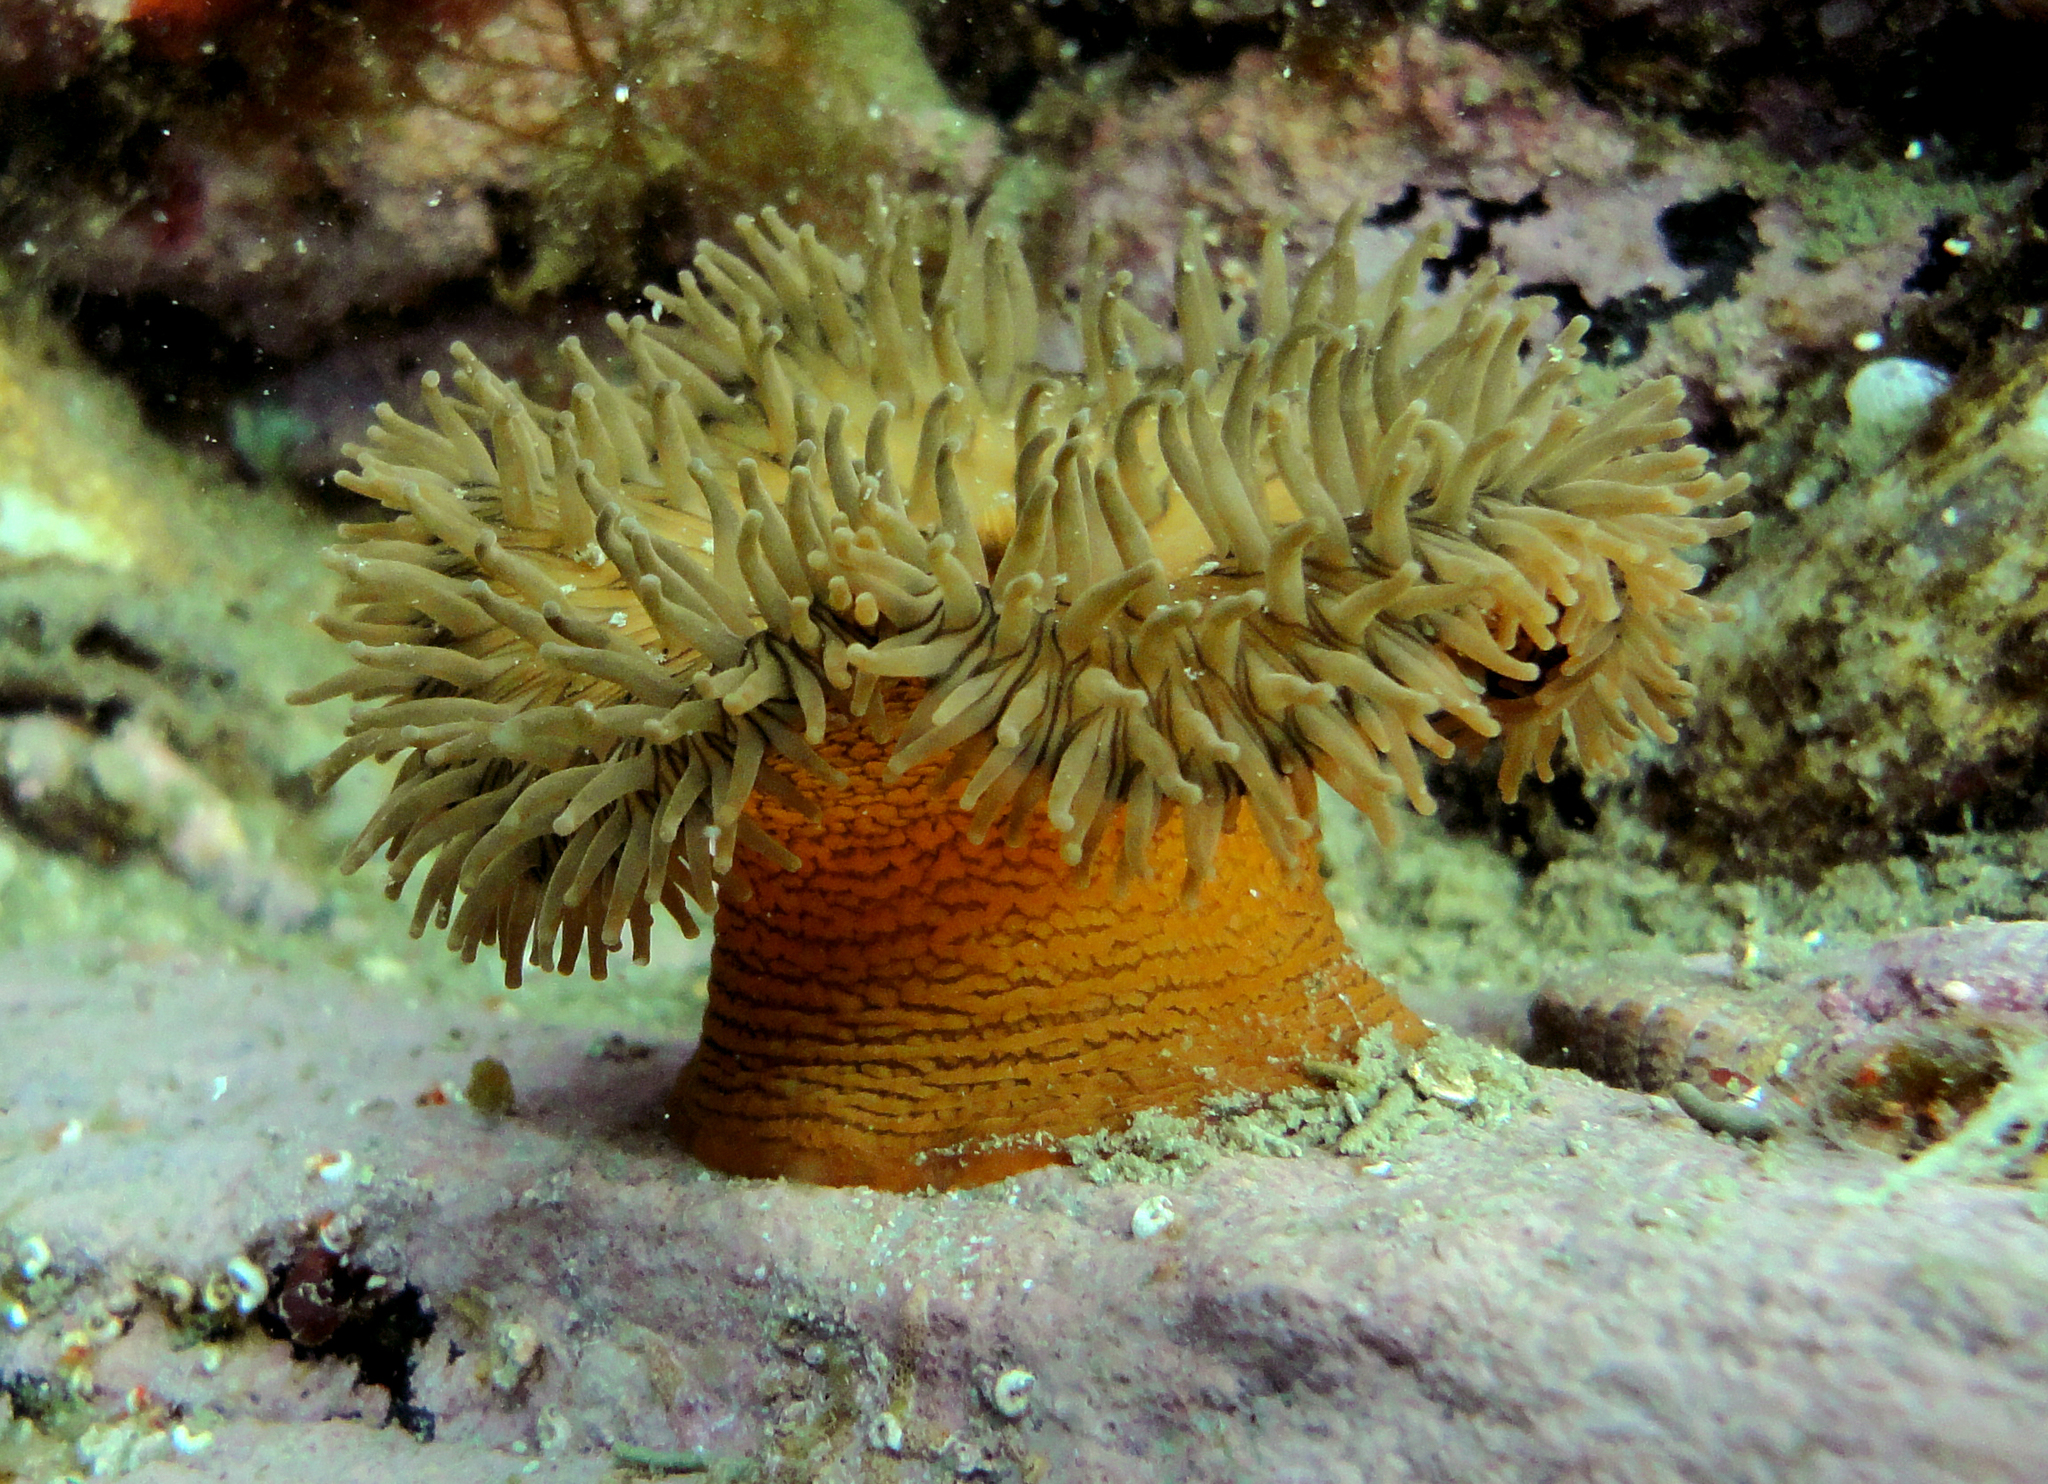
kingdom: Animalia
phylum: Cnidaria
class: Anthozoa
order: Actiniaria
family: Actinostolidae
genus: Antholoba
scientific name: Antholoba achates
